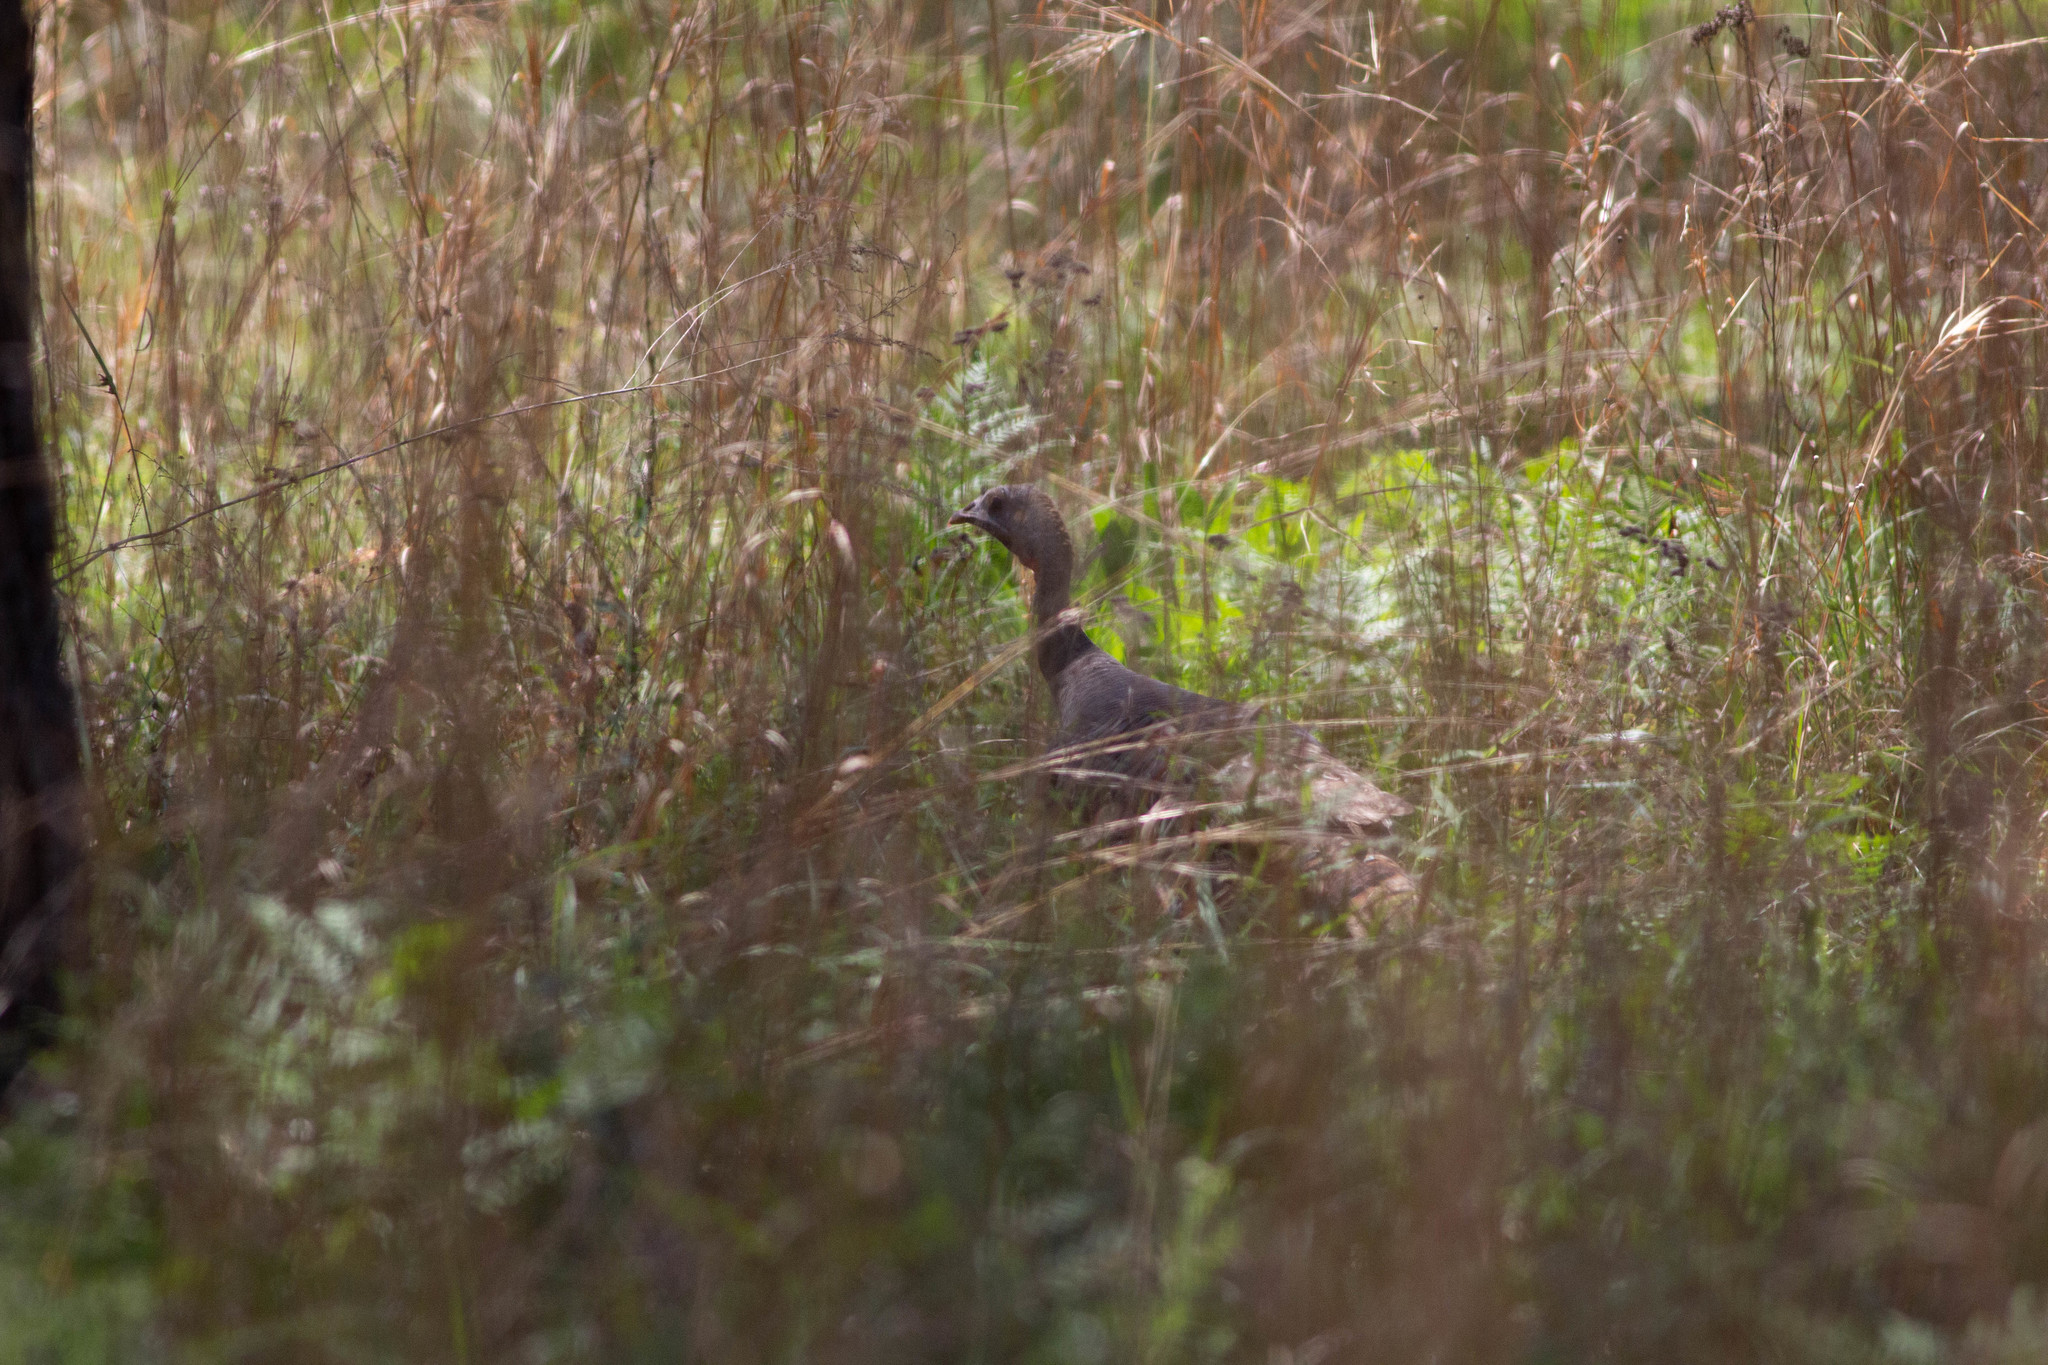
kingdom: Animalia
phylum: Chordata
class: Aves
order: Galliformes
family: Phasianidae
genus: Meleagris
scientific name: Meleagris gallopavo
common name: Wild turkey
